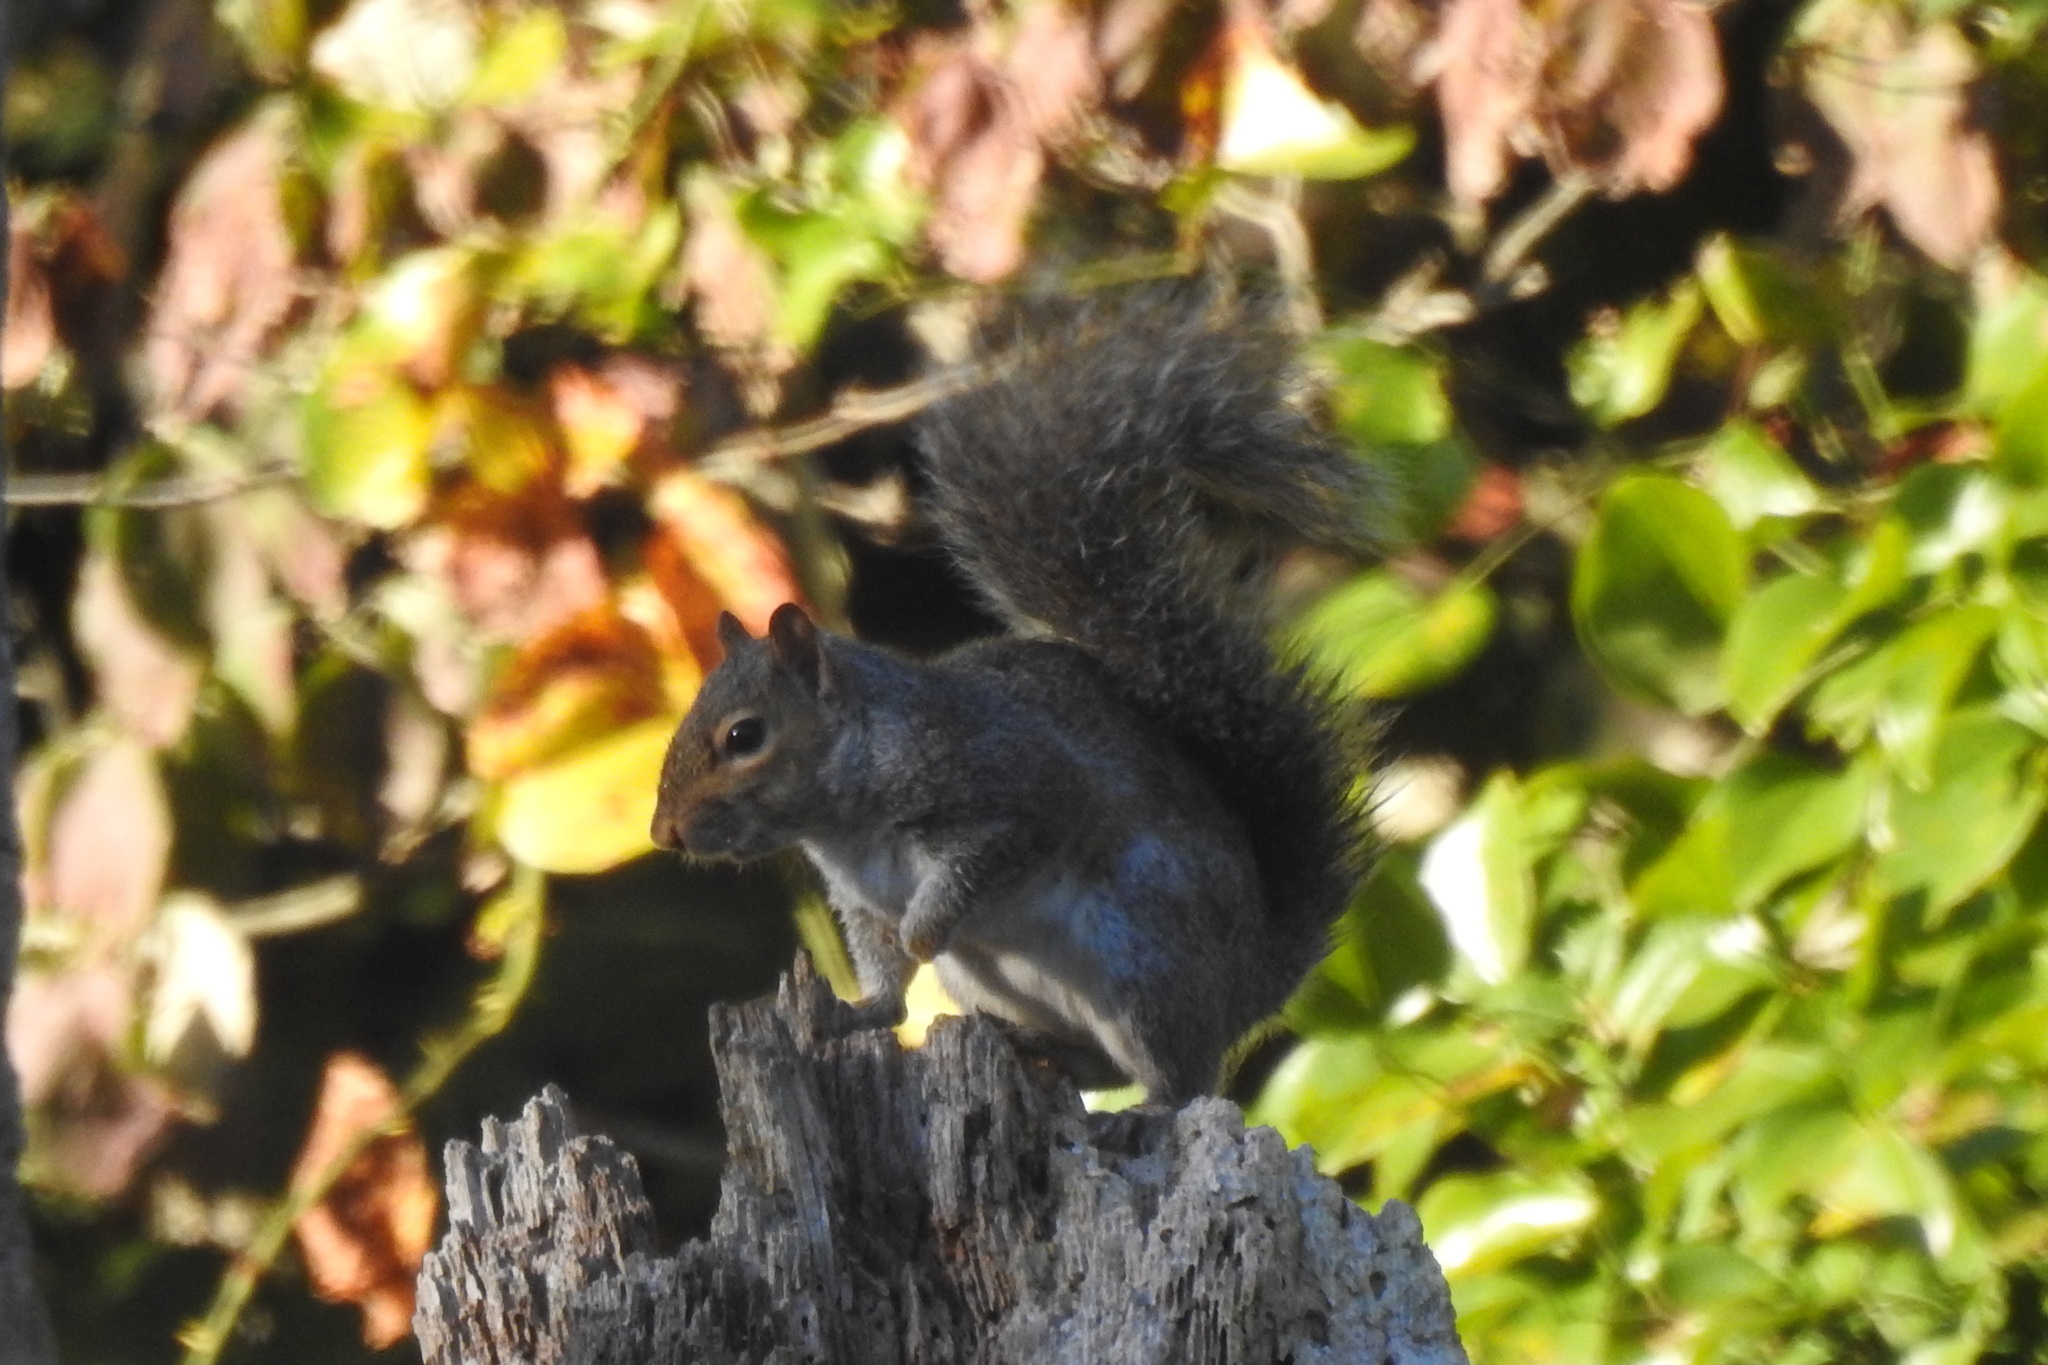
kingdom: Animalia
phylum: Chordata
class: Mammalia
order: Rodentia
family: Sciuridae
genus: Sciurus
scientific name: Sciurus carolinensis
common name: Eastern gray squirrel
